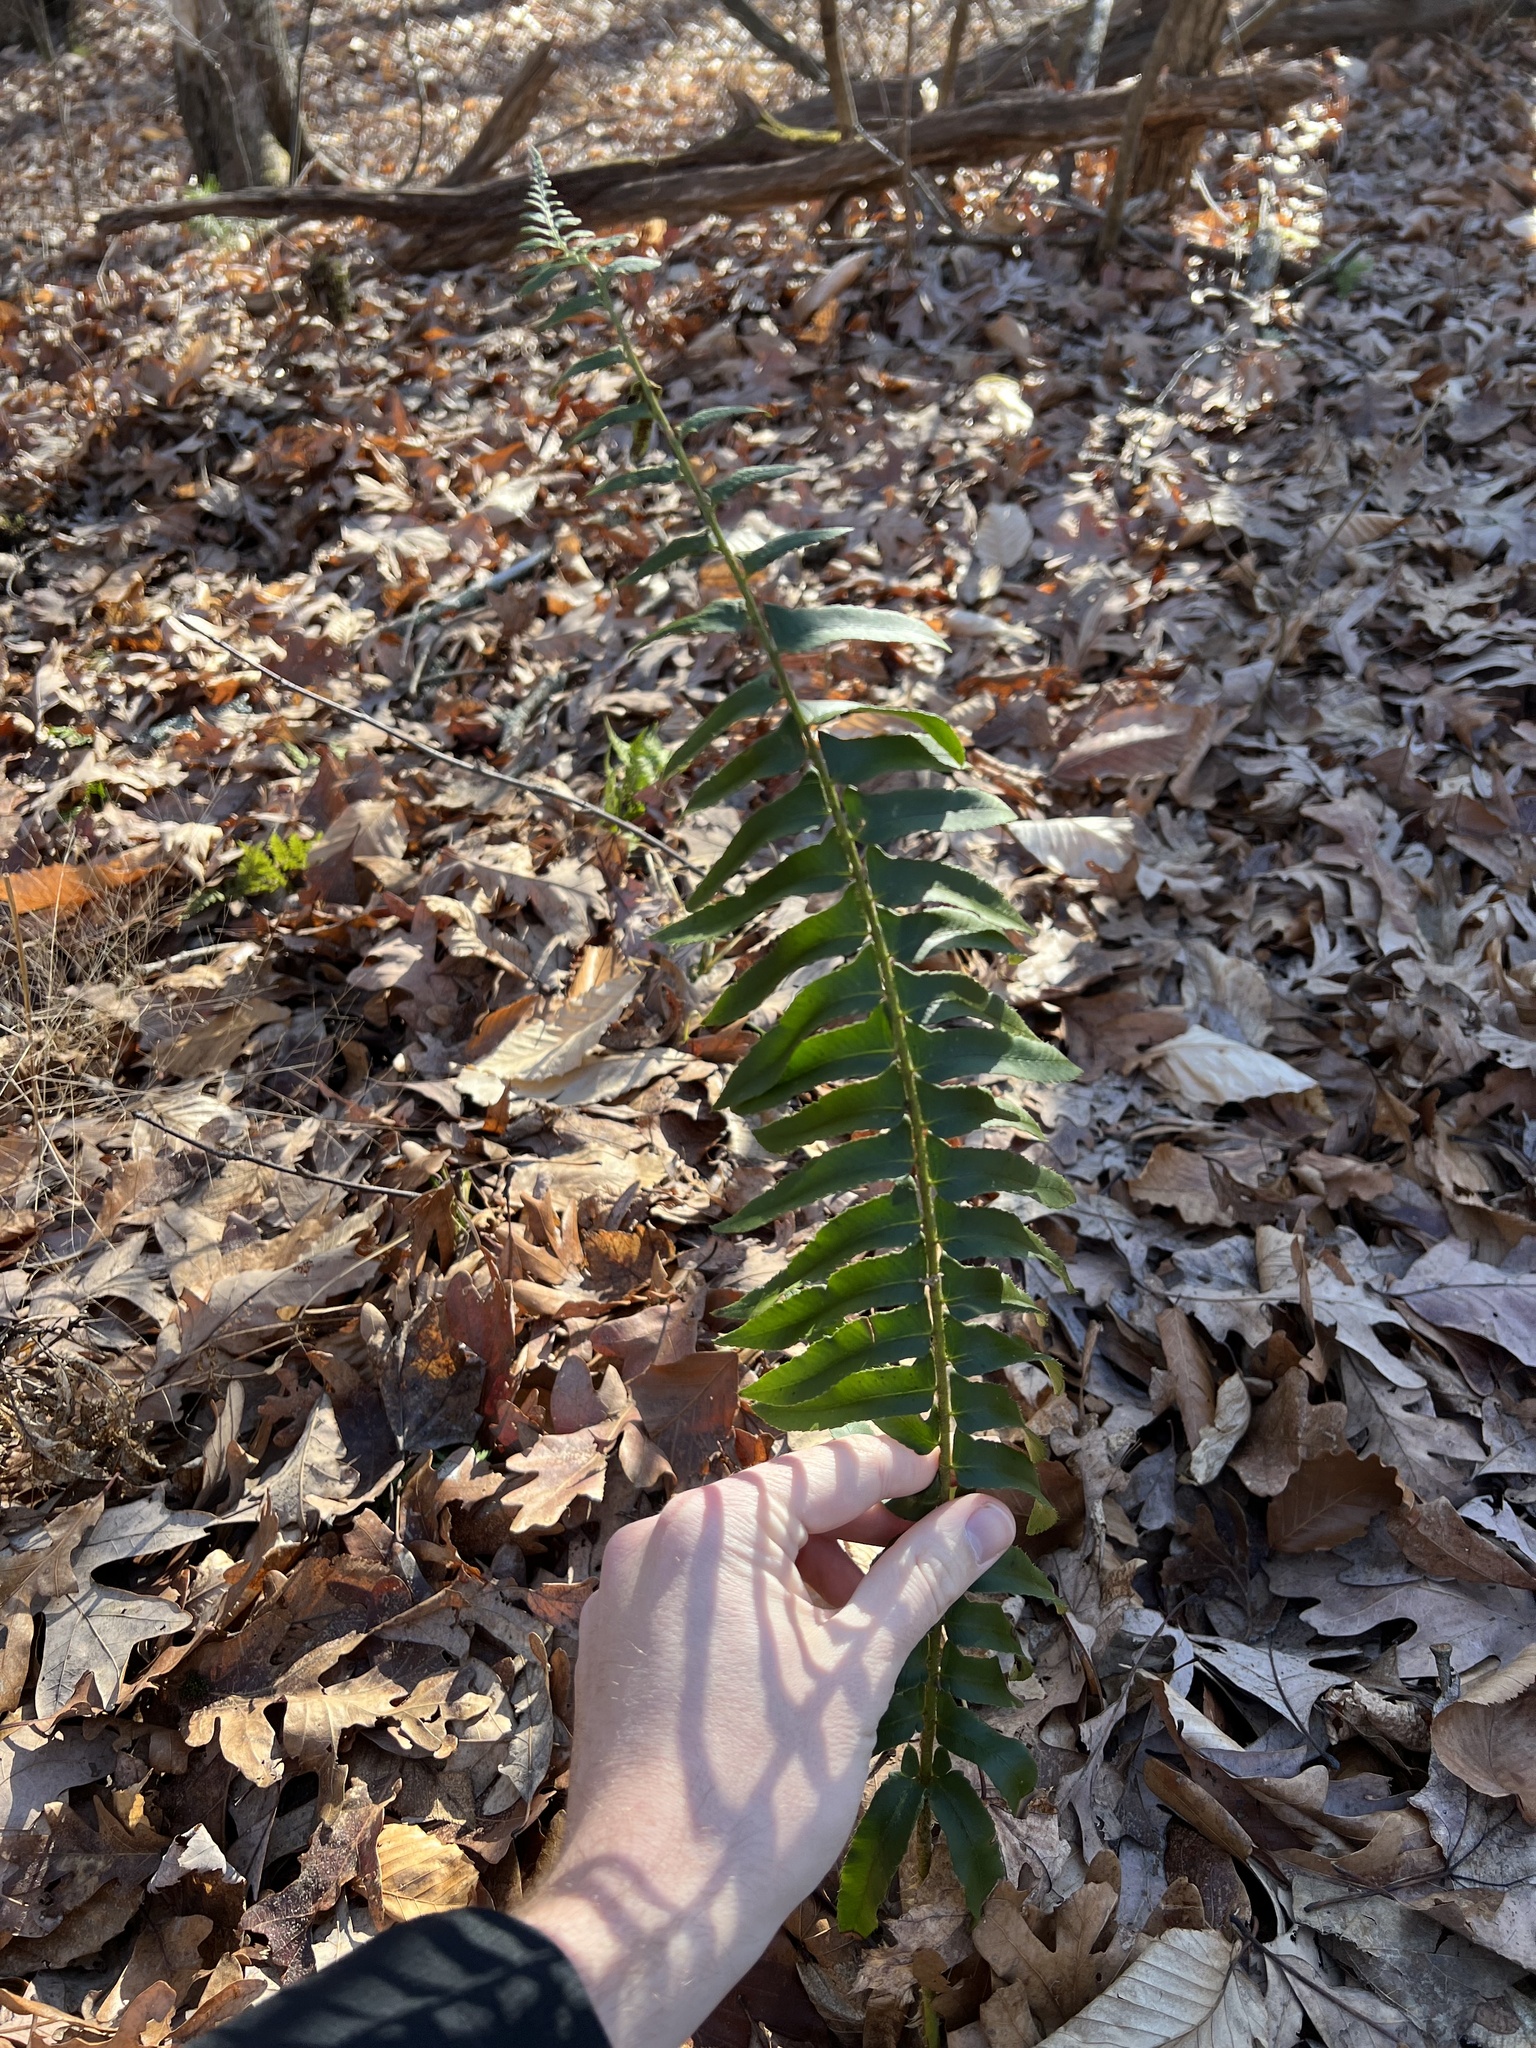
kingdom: Plantae
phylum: Tracheophyta
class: Polypodiopsida
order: Polypodiales
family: Dryopteridaceae
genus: Polystichum
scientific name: Polystichum acrostichoides
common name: Christmas fern
